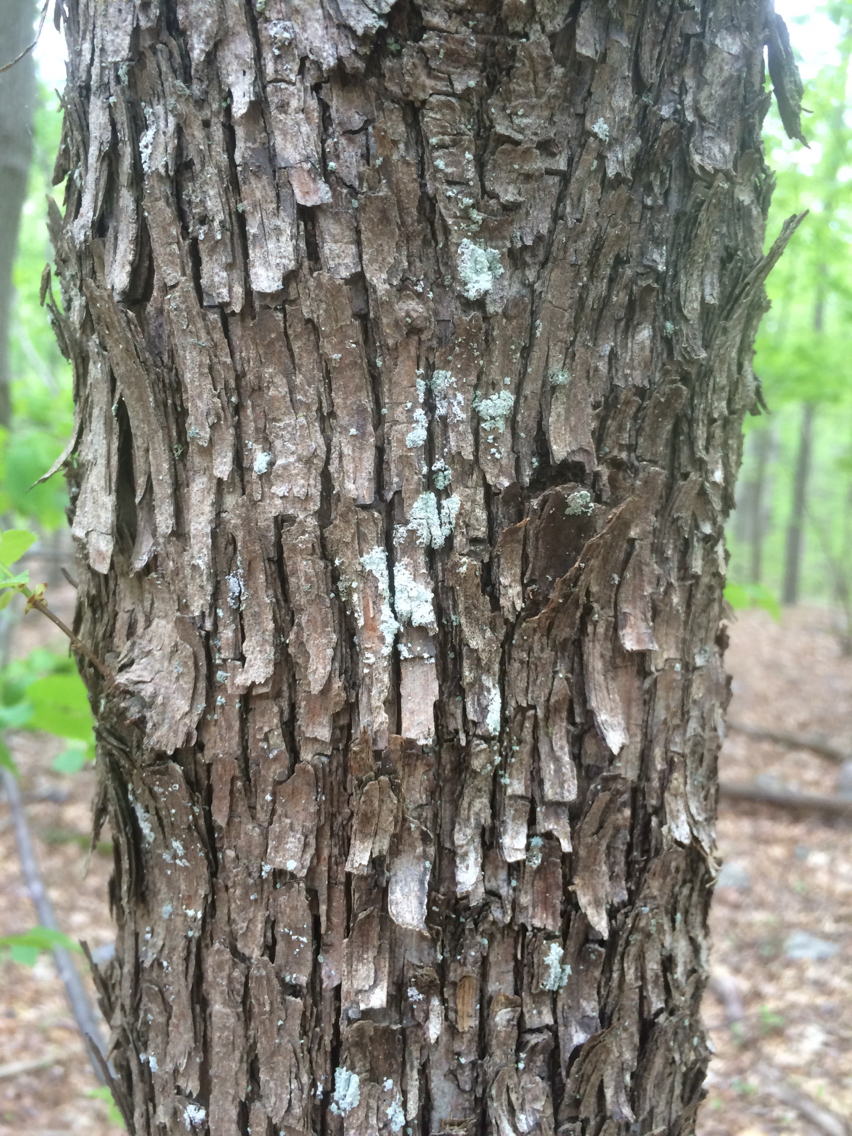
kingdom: Plantae
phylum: Tracheophyta
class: Magnoliopsida
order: Fagales
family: Betulaceae
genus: Ostrya
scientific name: Ostrya virginiana
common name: Ironwood
